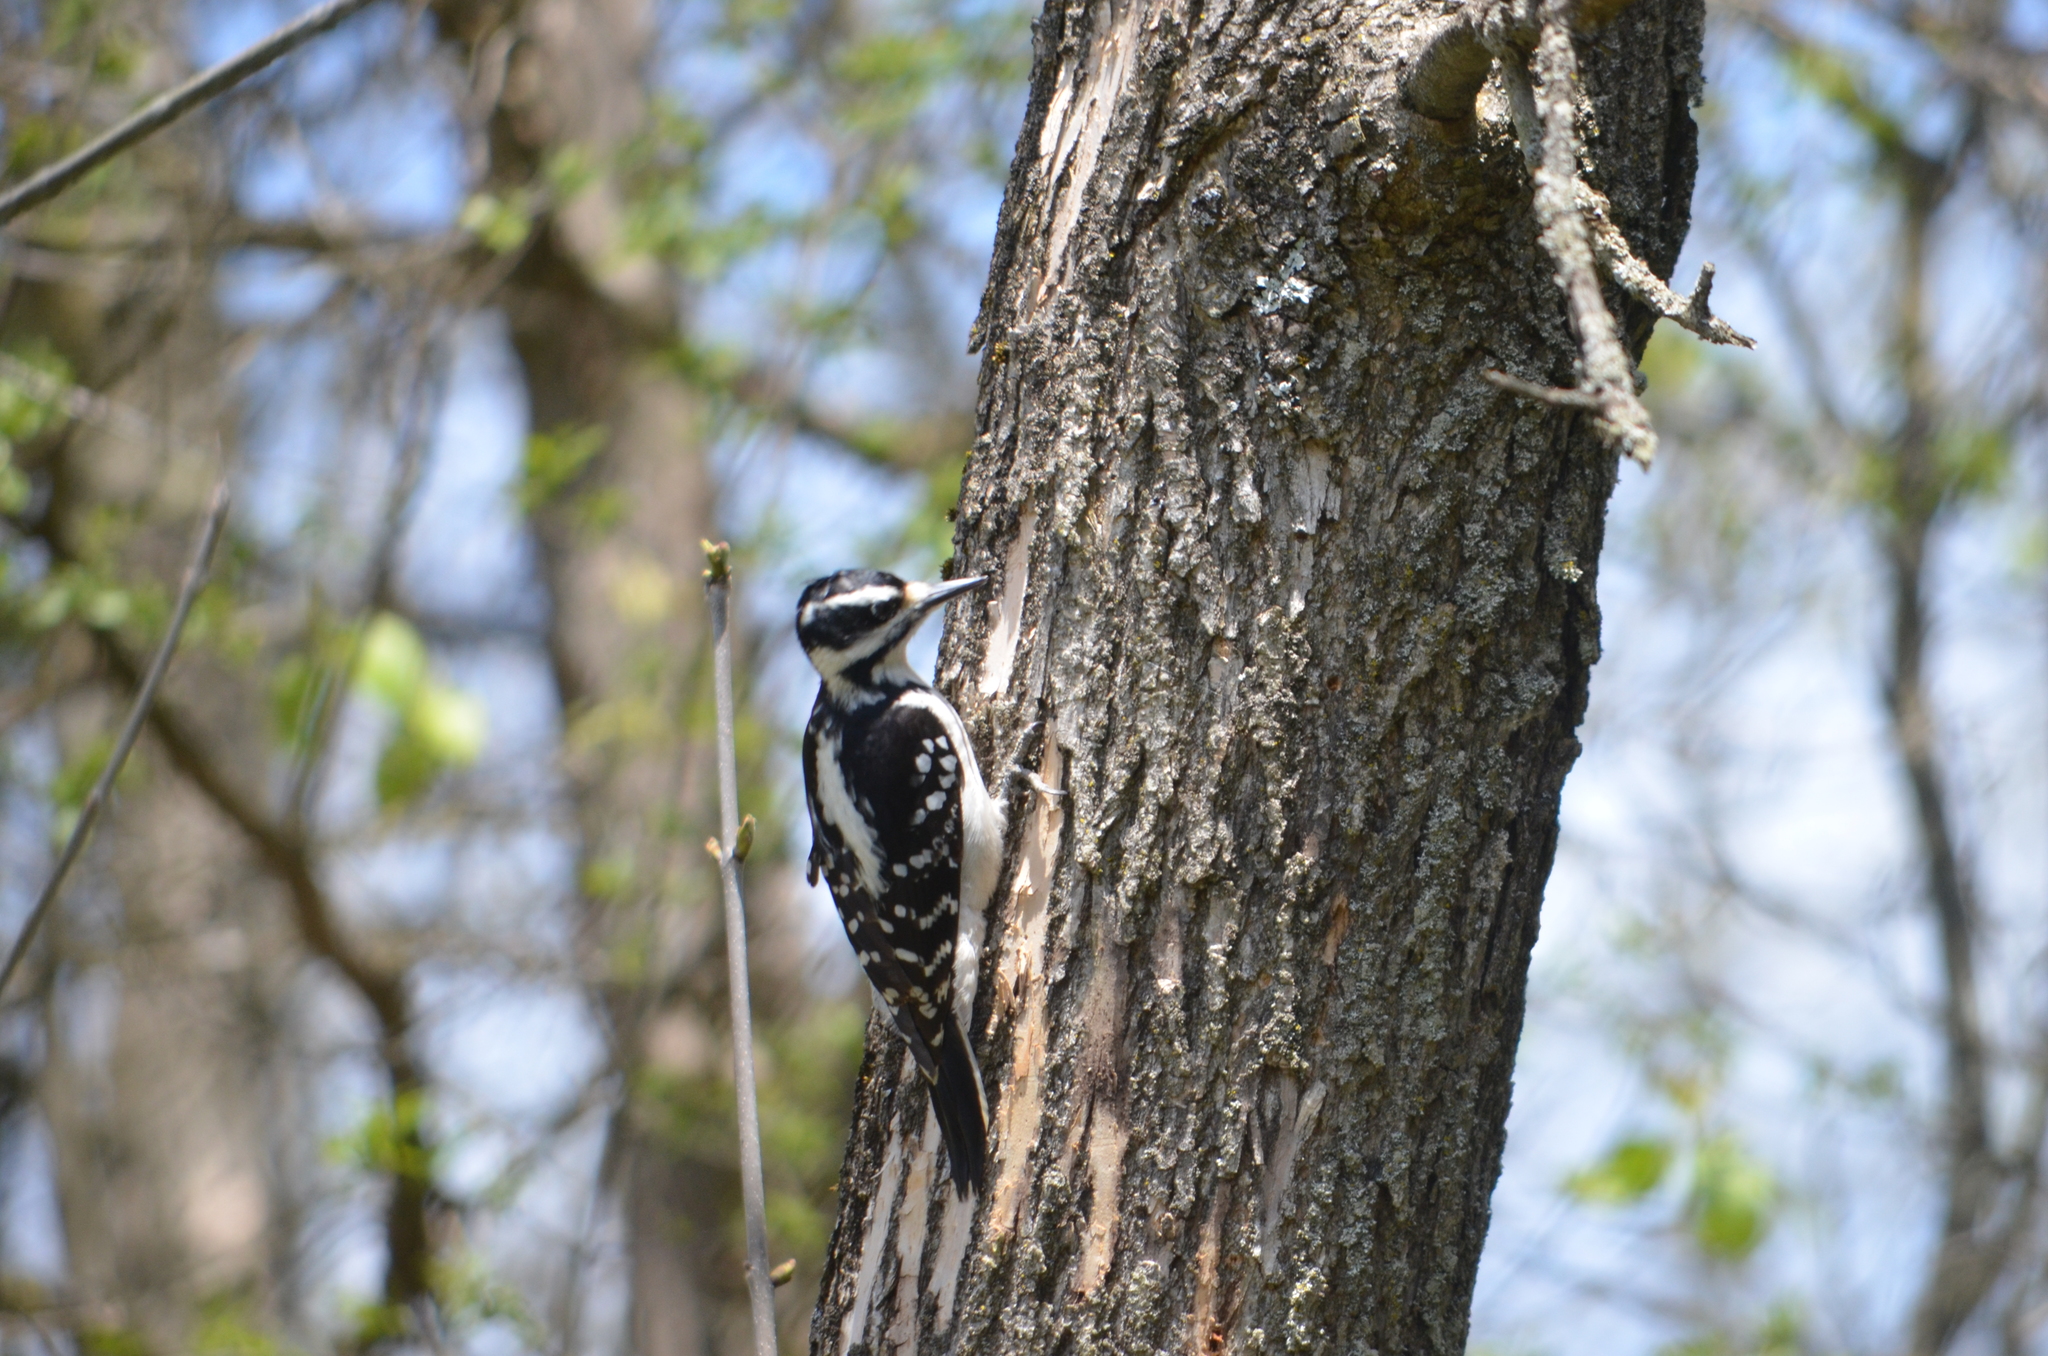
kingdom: Animalia
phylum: Chordata
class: Aves
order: Piciformes
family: Picidae
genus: Leuconotopicus
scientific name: Leuconotopicus villosus
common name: Hairy woodpecker
